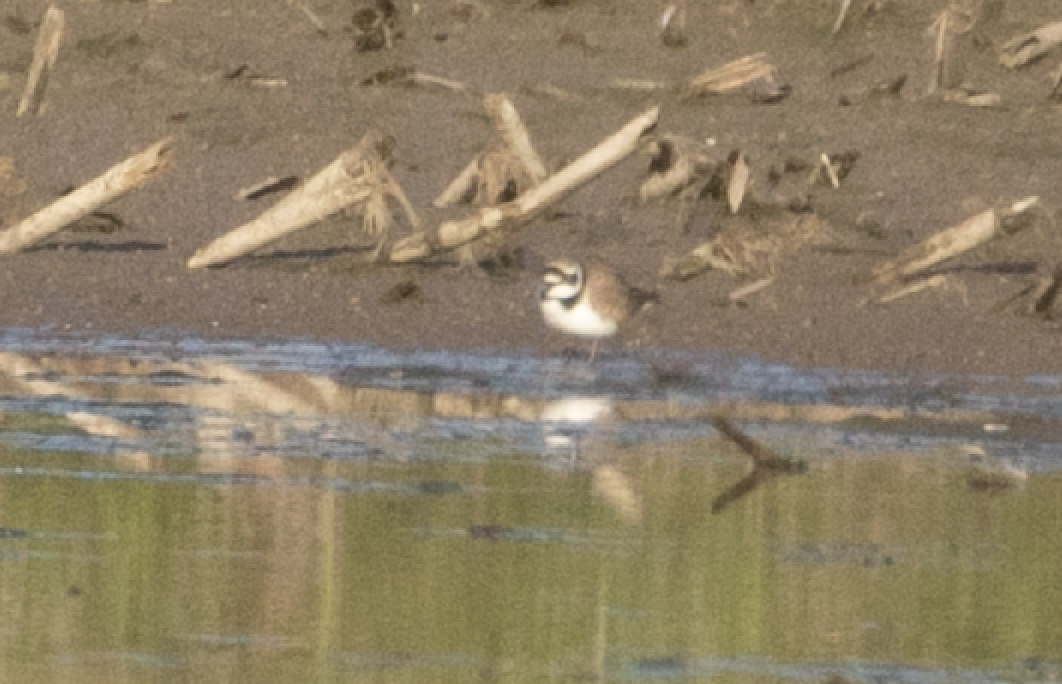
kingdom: Animalia
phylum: Chordata
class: Aves
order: Charadriiformes
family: Charadriidae
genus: Charadrius
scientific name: Charadrius dubius
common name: Little ringed plover
